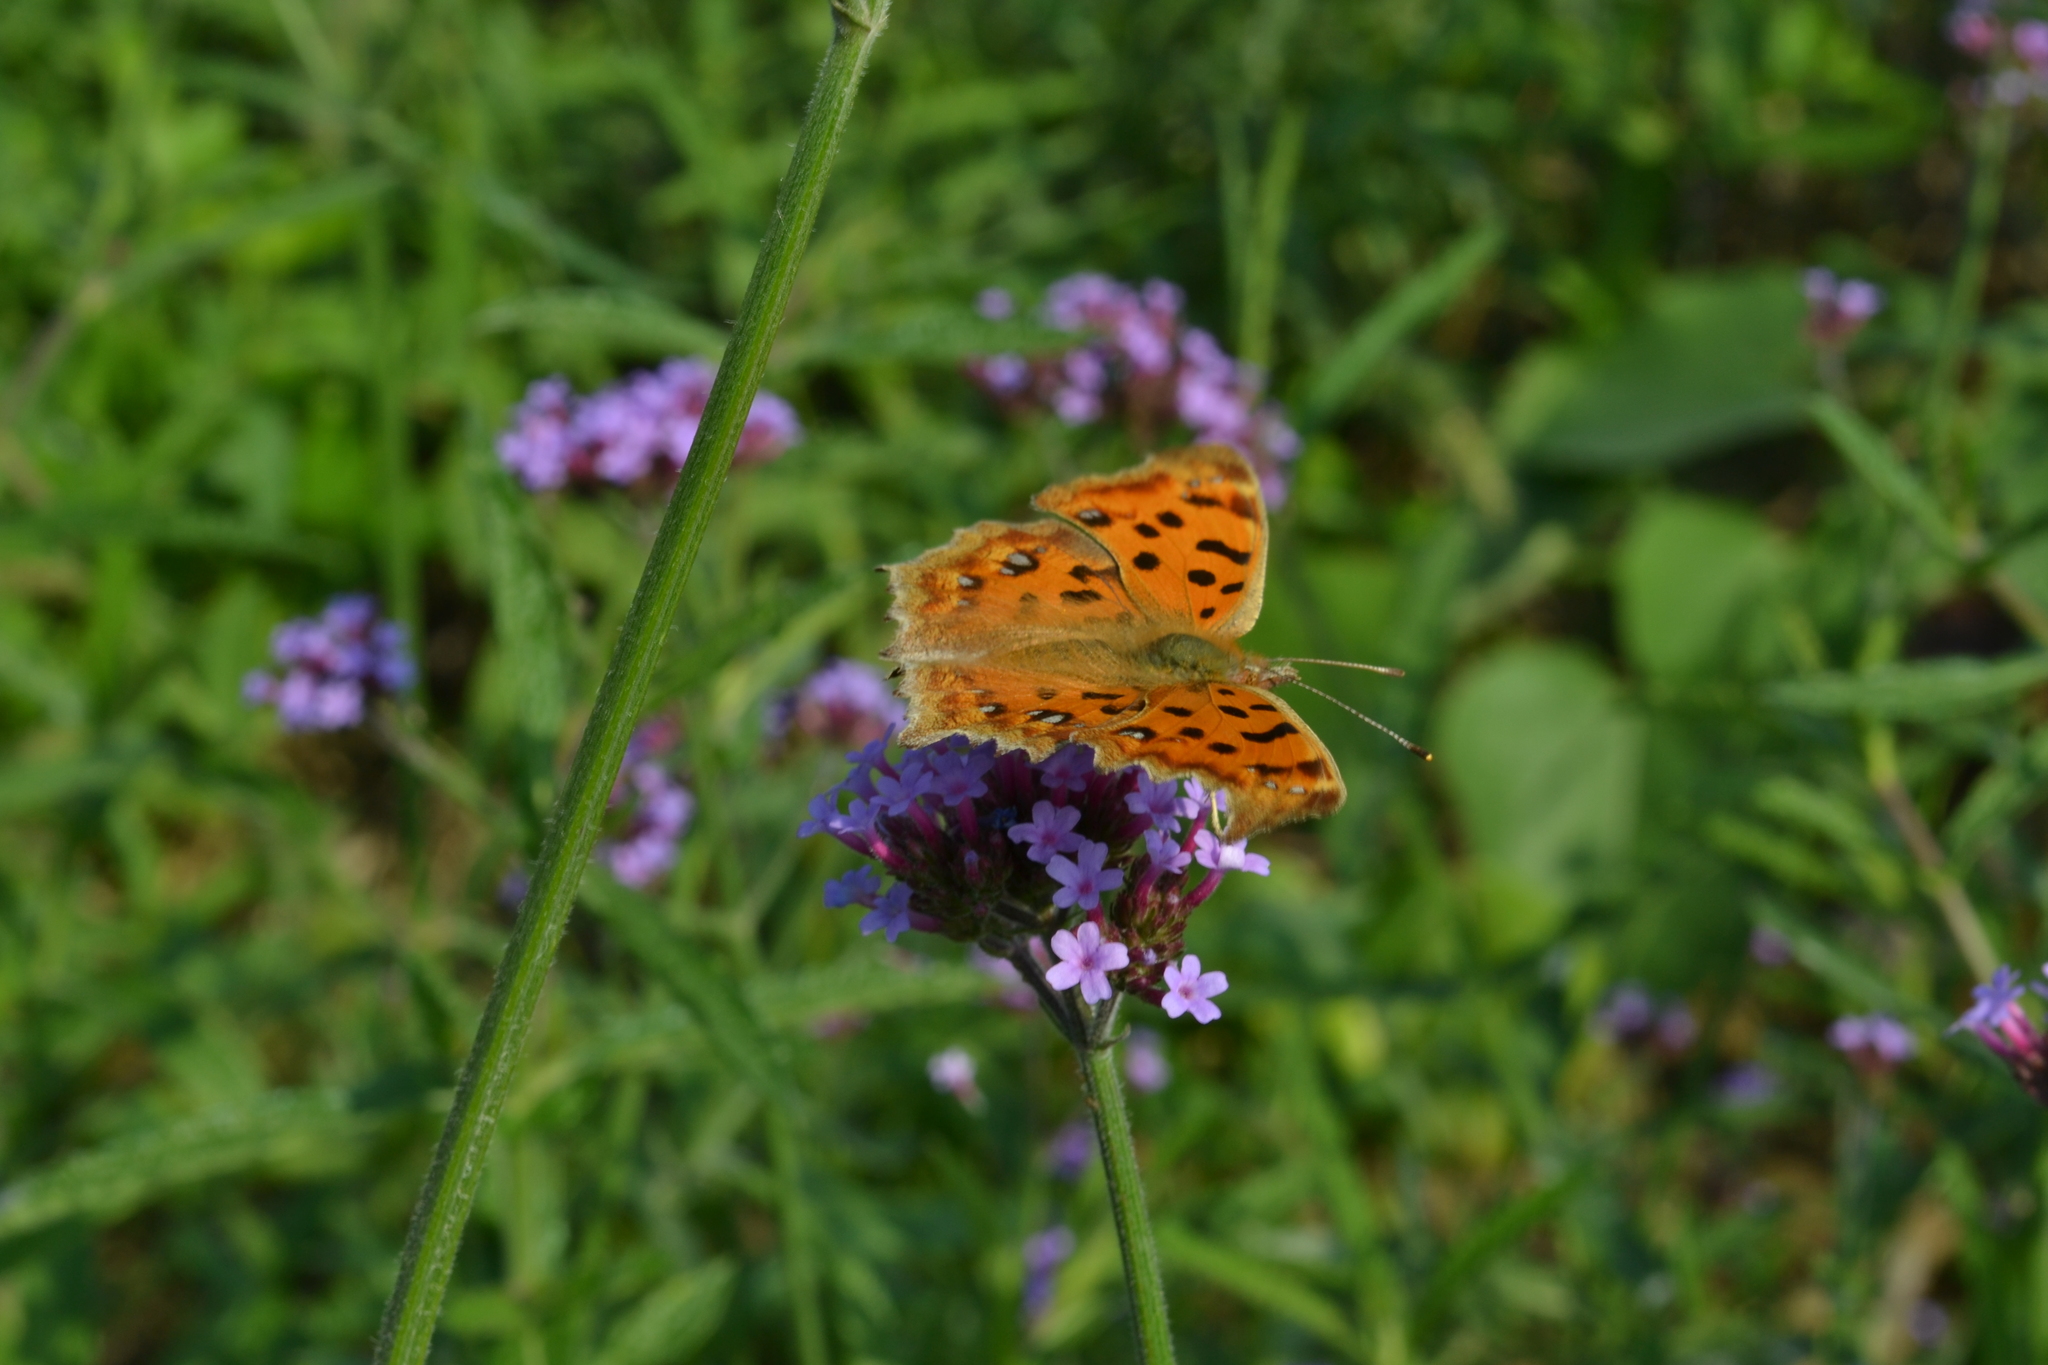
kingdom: Animalia
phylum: Arthropoda
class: Insecta
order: Lepidoptera
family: Nymphalidae
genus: Polygonia
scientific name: Polygonia c-aureum
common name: Asian comma
